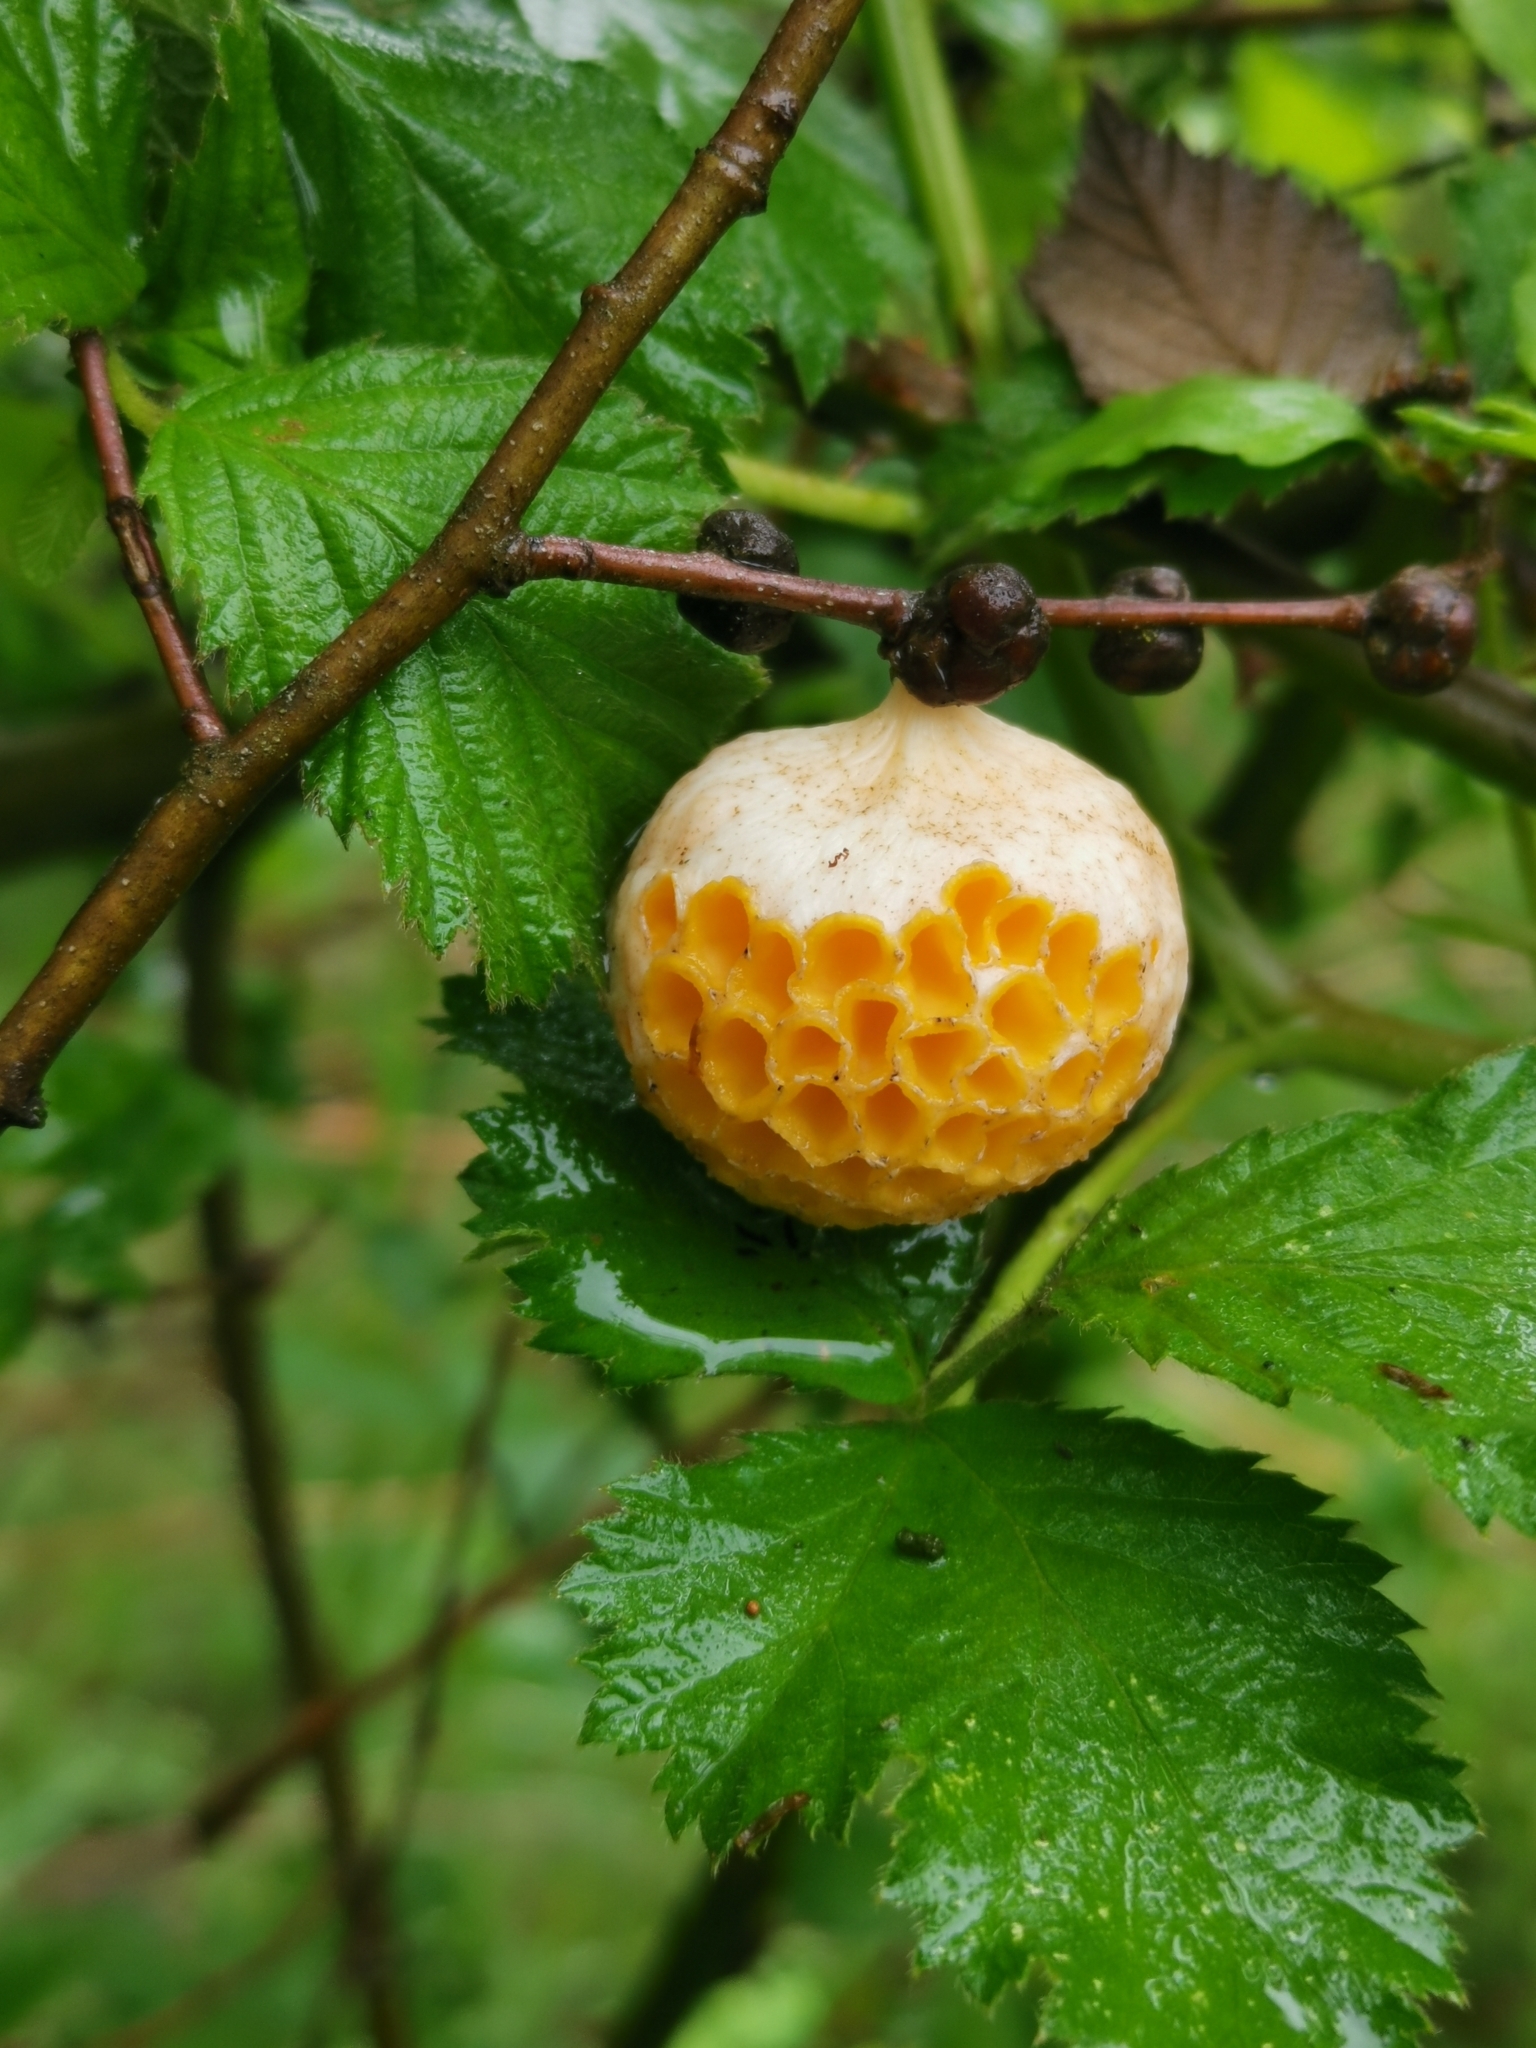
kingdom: Fungi
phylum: Ascomycota
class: Leotiomycetes
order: Cyttariales
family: Cyttariaceae
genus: Cyttaria
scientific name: Cyttaria espinosae
